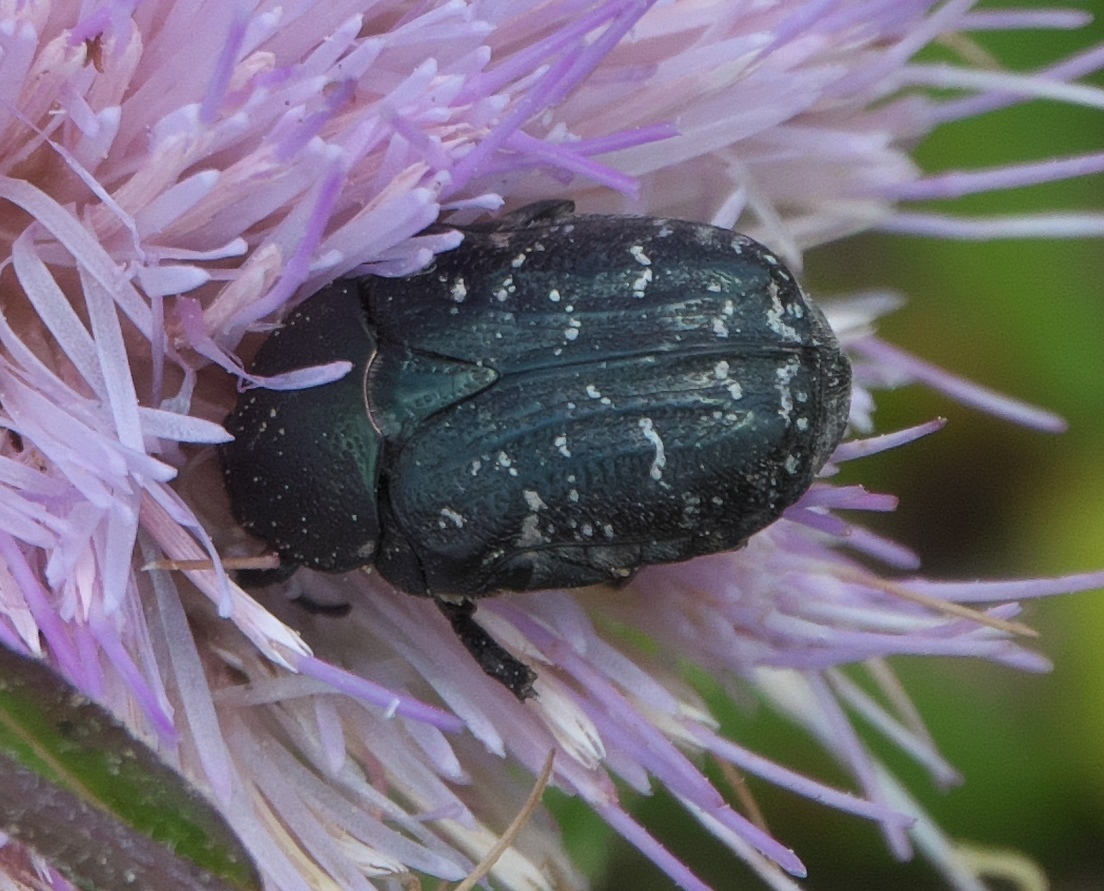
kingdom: Animalia
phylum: Arthropoda
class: Insecta
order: Coleoptera
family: Scarabaeidae
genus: Euphoria
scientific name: Euphoria sepulcralis
